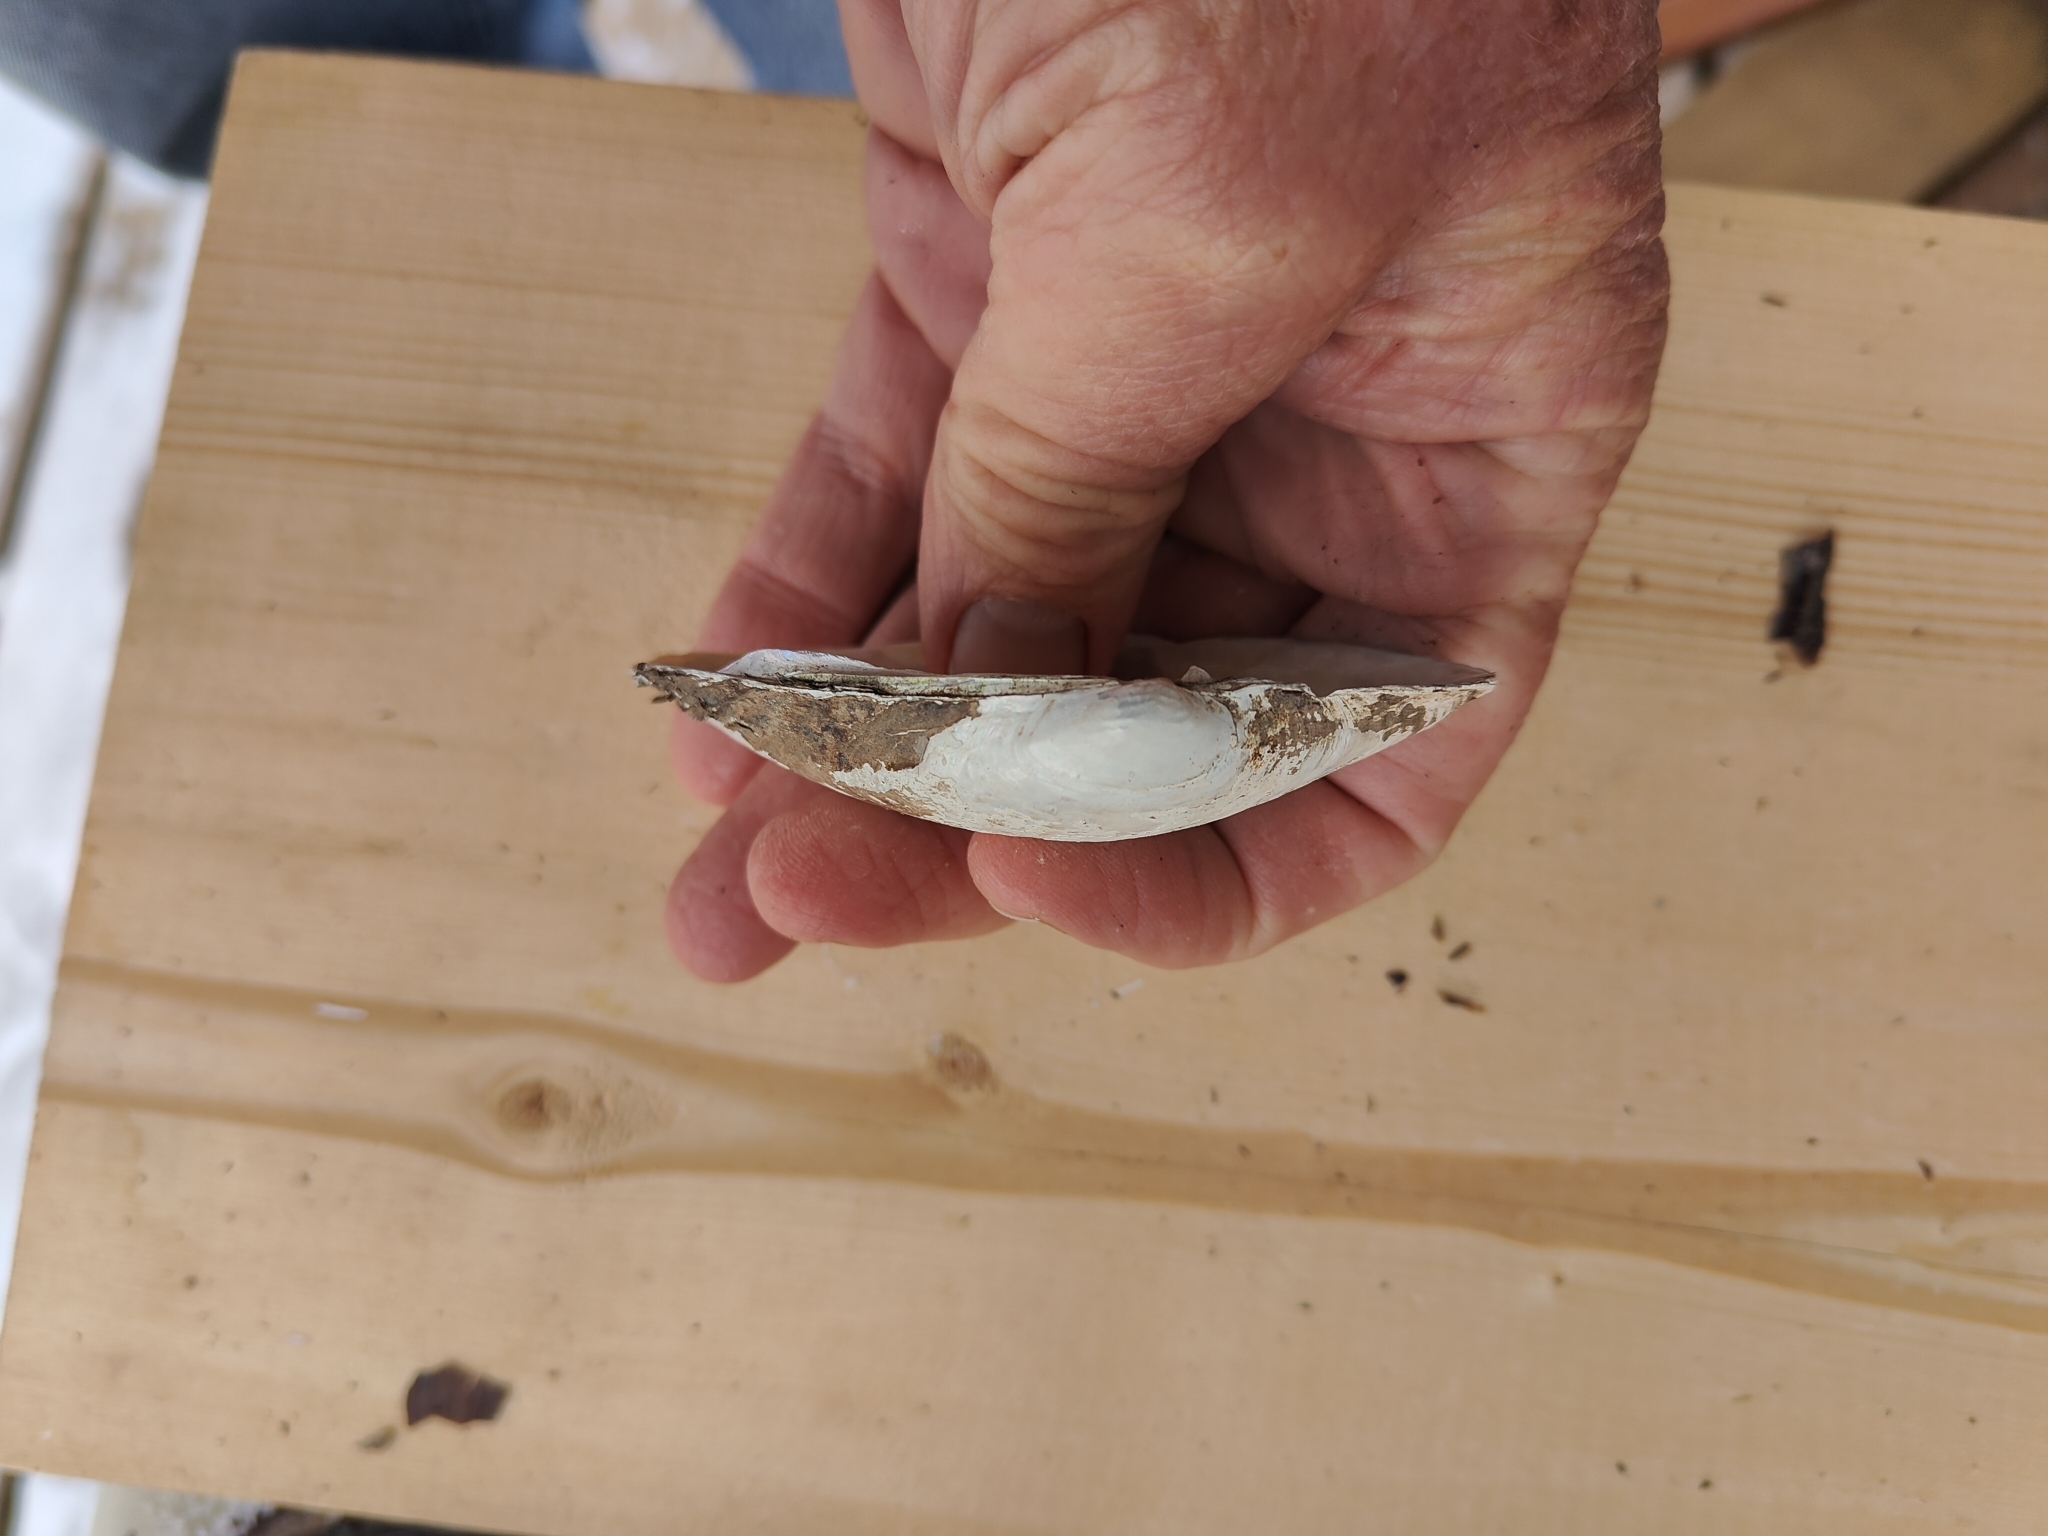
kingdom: Animalia
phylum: Mollusca
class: Bivalvia
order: Unionida
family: Unionidae
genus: Lampsilis
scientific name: Lampsilis siliquoidea
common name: Fatmucket
